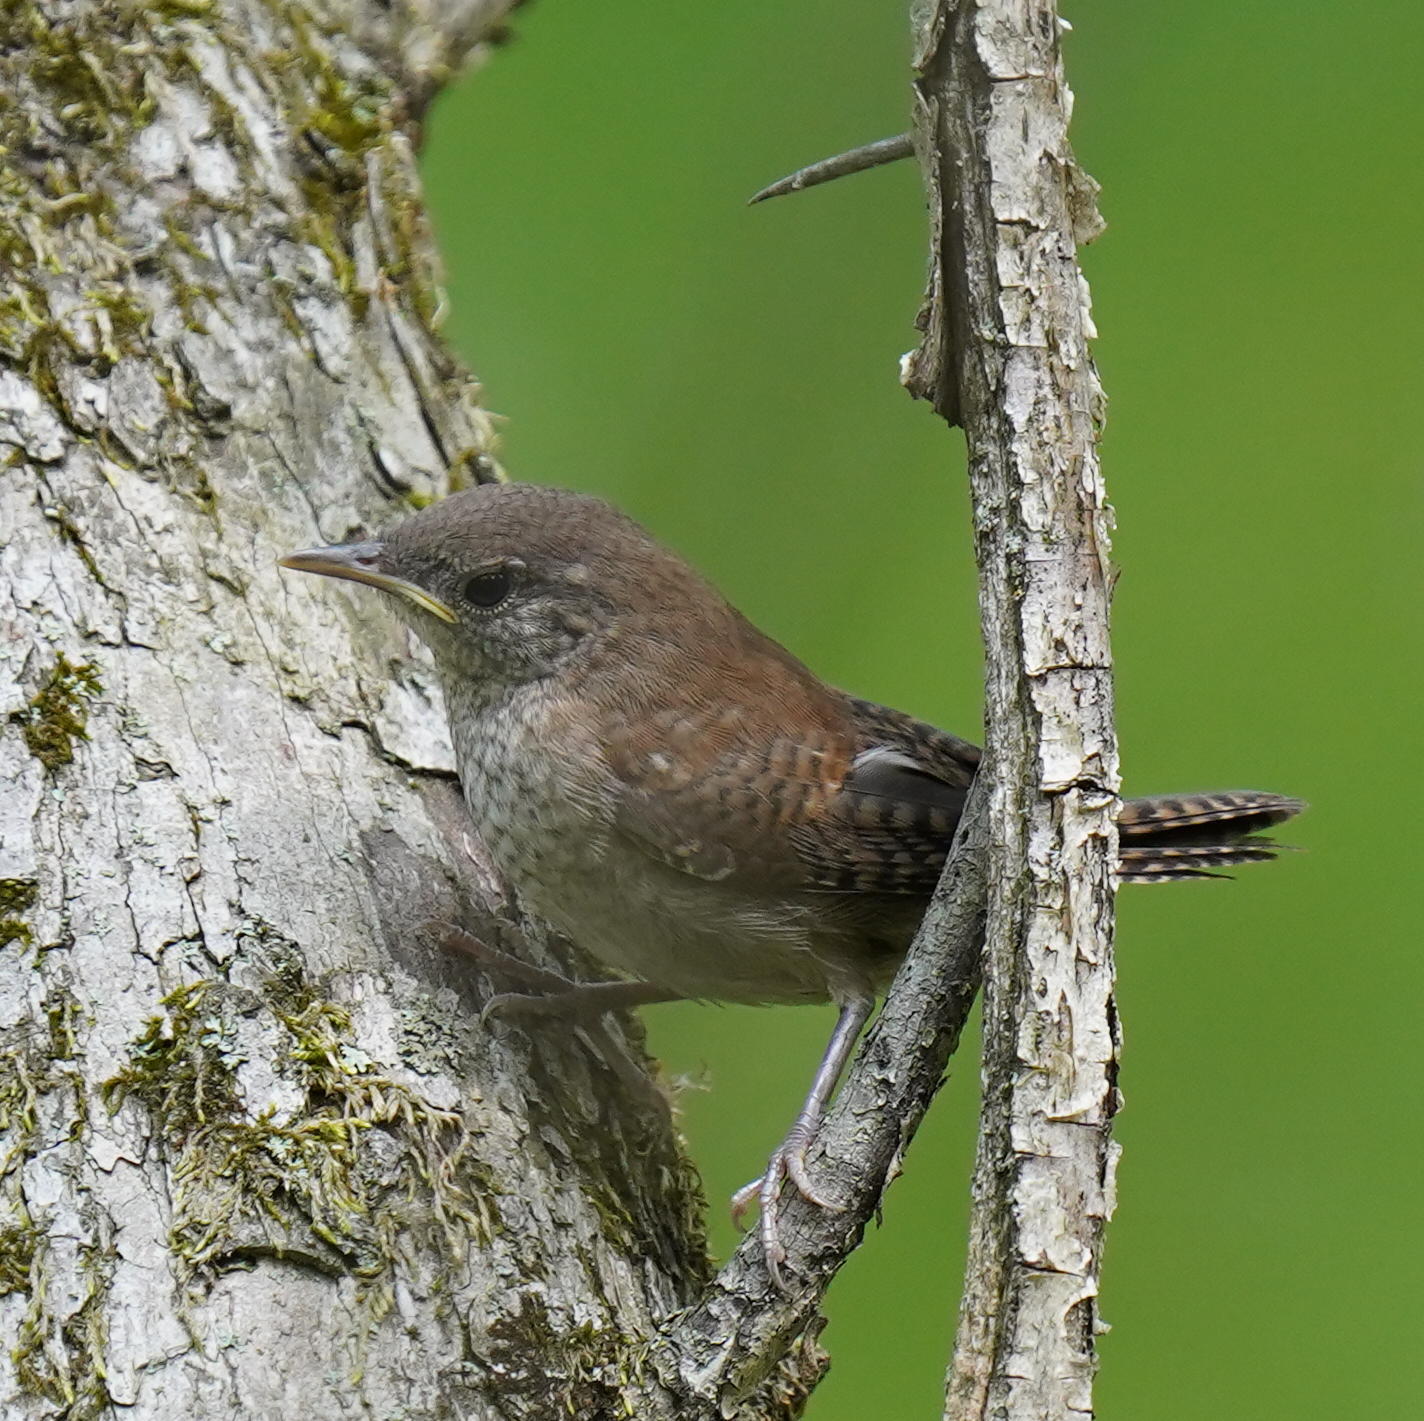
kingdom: Animalia
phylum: Chordata
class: Aves
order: Passeriformes
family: Troglodytidae
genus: Troglodytes
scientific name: Troglodytes aedon
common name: House wren
